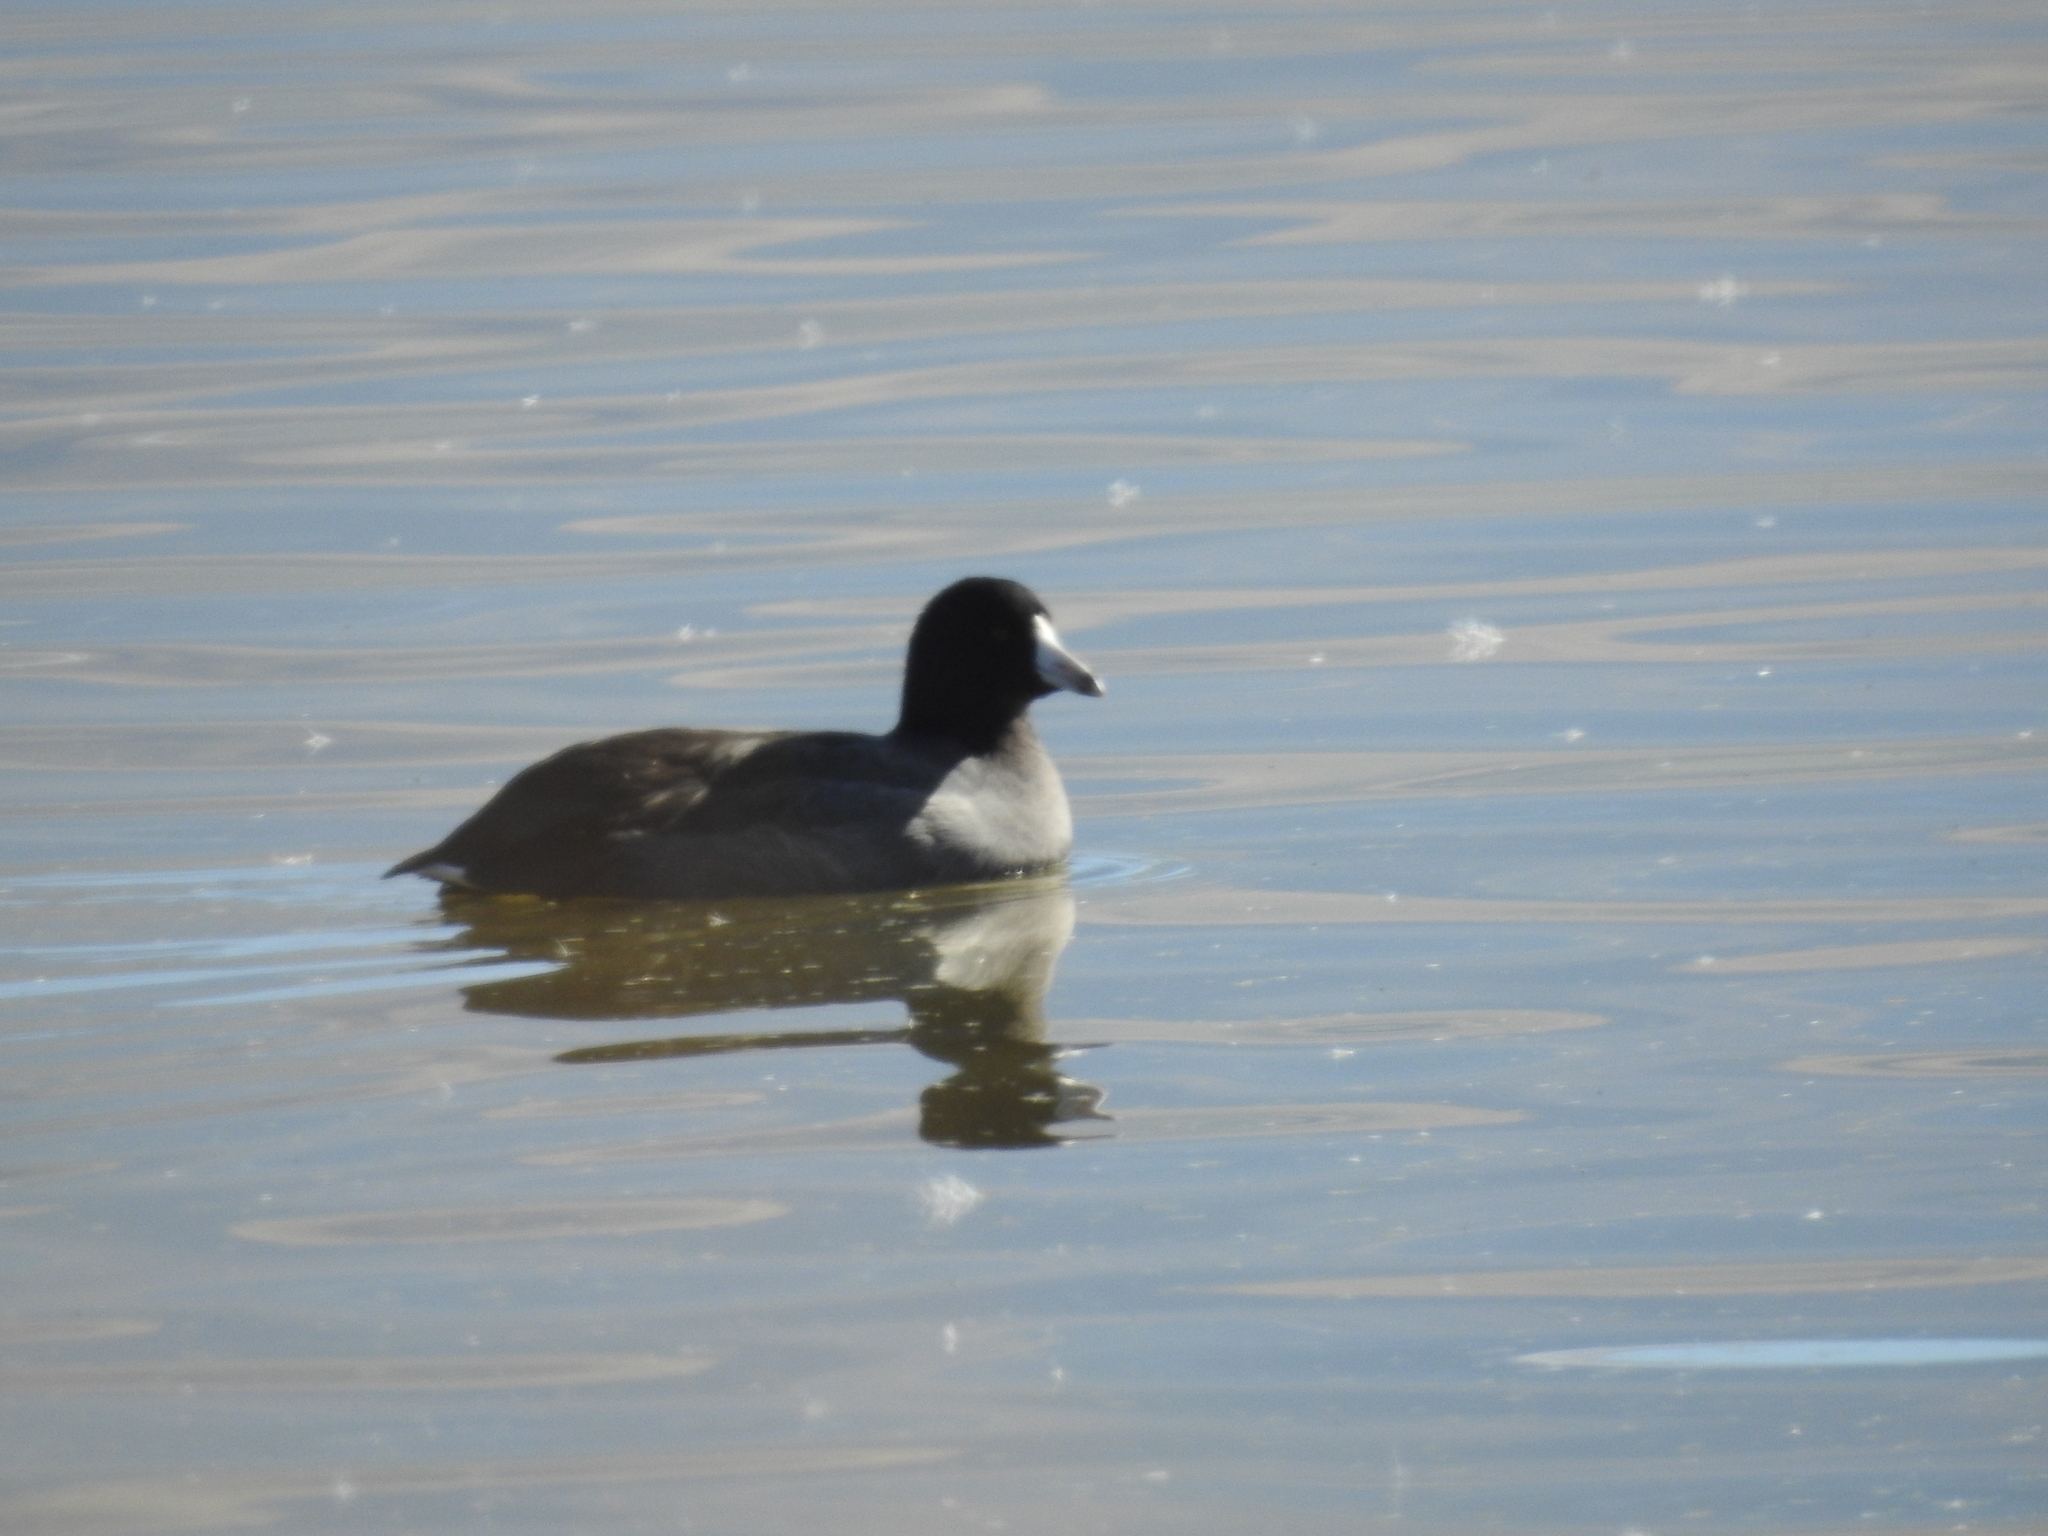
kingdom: Animalia
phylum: Chordata
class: Aves
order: Gruiformes
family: Rallidae
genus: Fulica
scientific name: Fulica americana
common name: American coot
